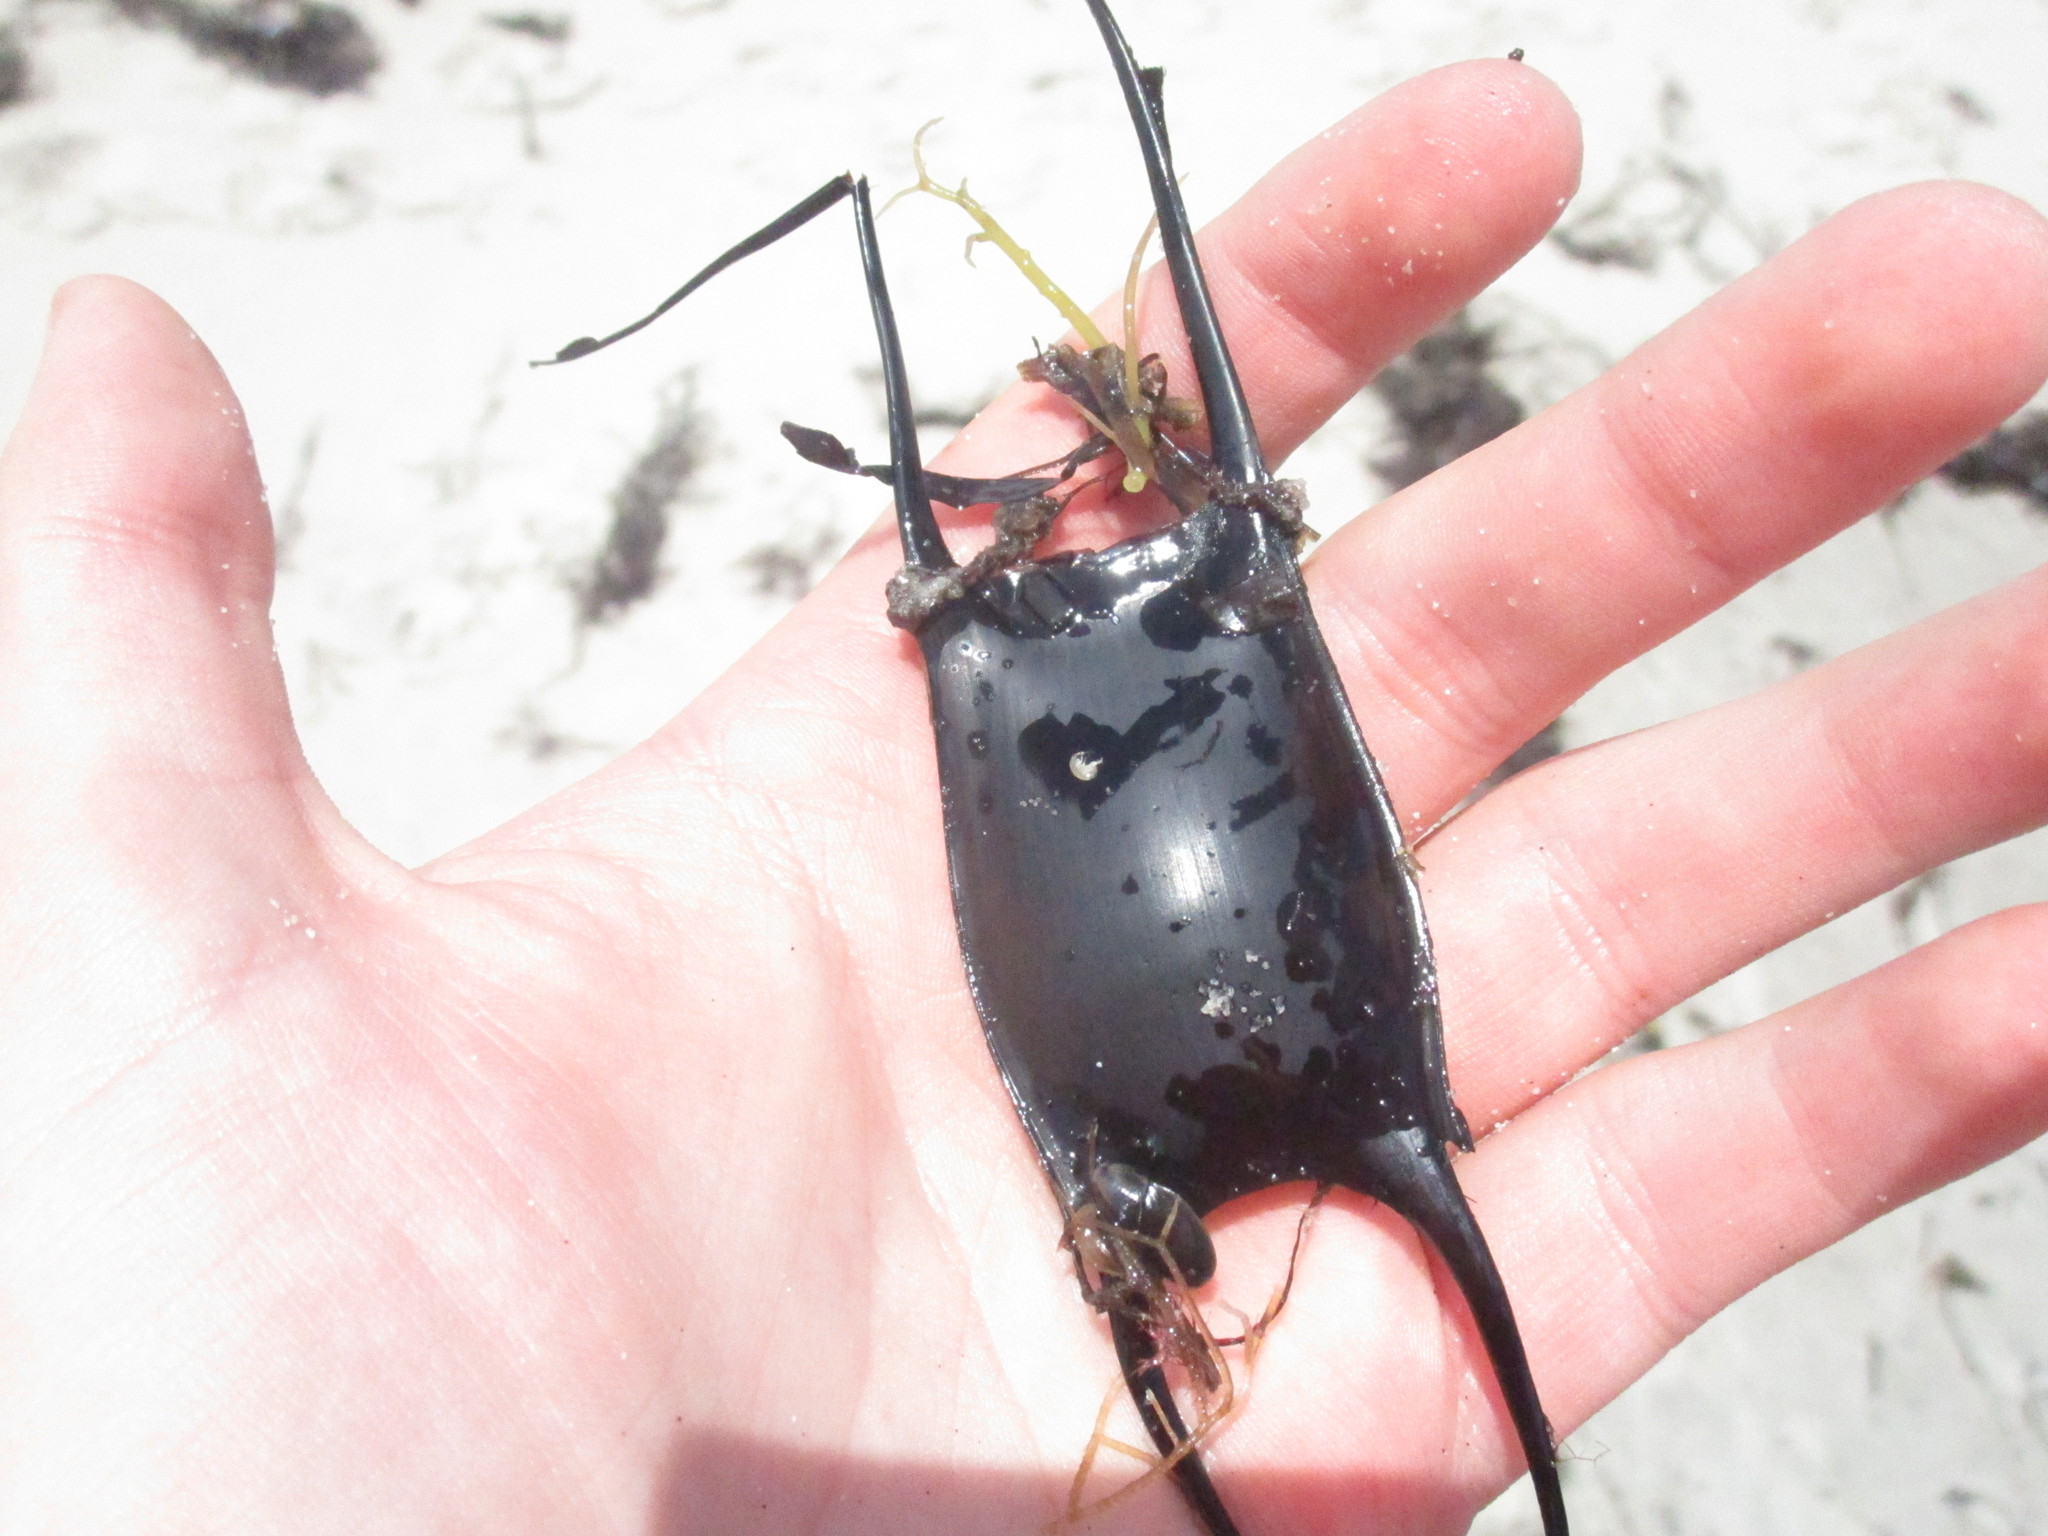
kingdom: Animalia
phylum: Chordata
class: Elasmobranchii
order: Rajiformes
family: Rajidae
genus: Leucoraja
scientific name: Leucoraja erinacea
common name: Little skate
